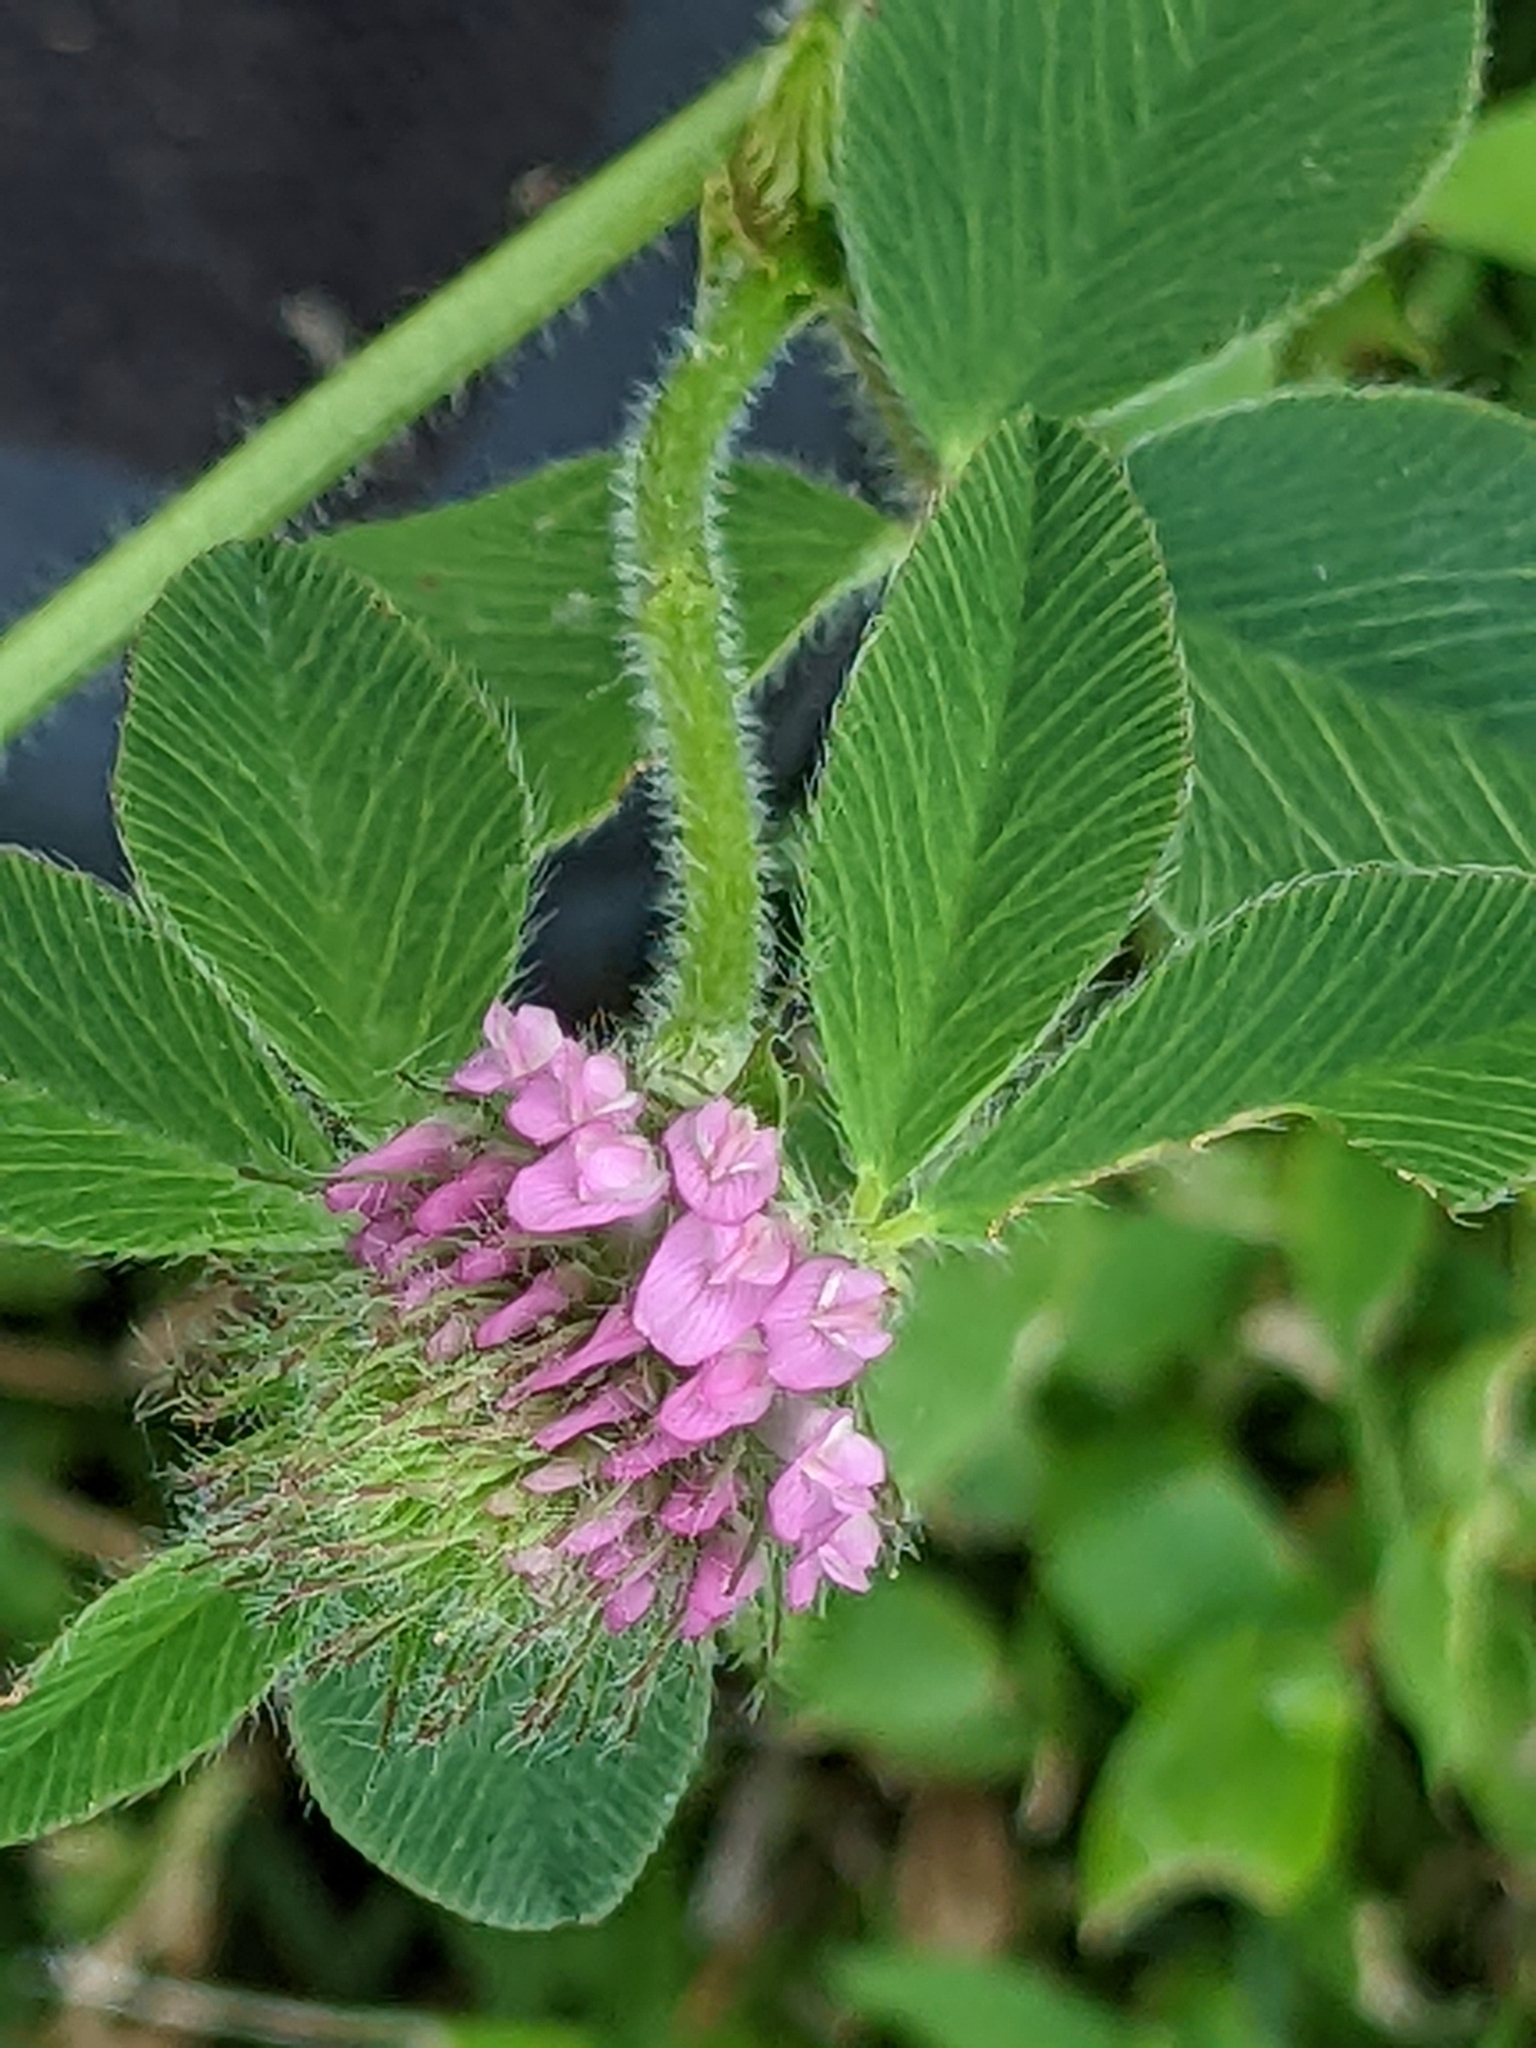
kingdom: Plantae
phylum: Tracheophyta
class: Magnoliopsida
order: Fabales
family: Fabaceae
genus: Trifolium
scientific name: Trifolium pratense
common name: Red clover
